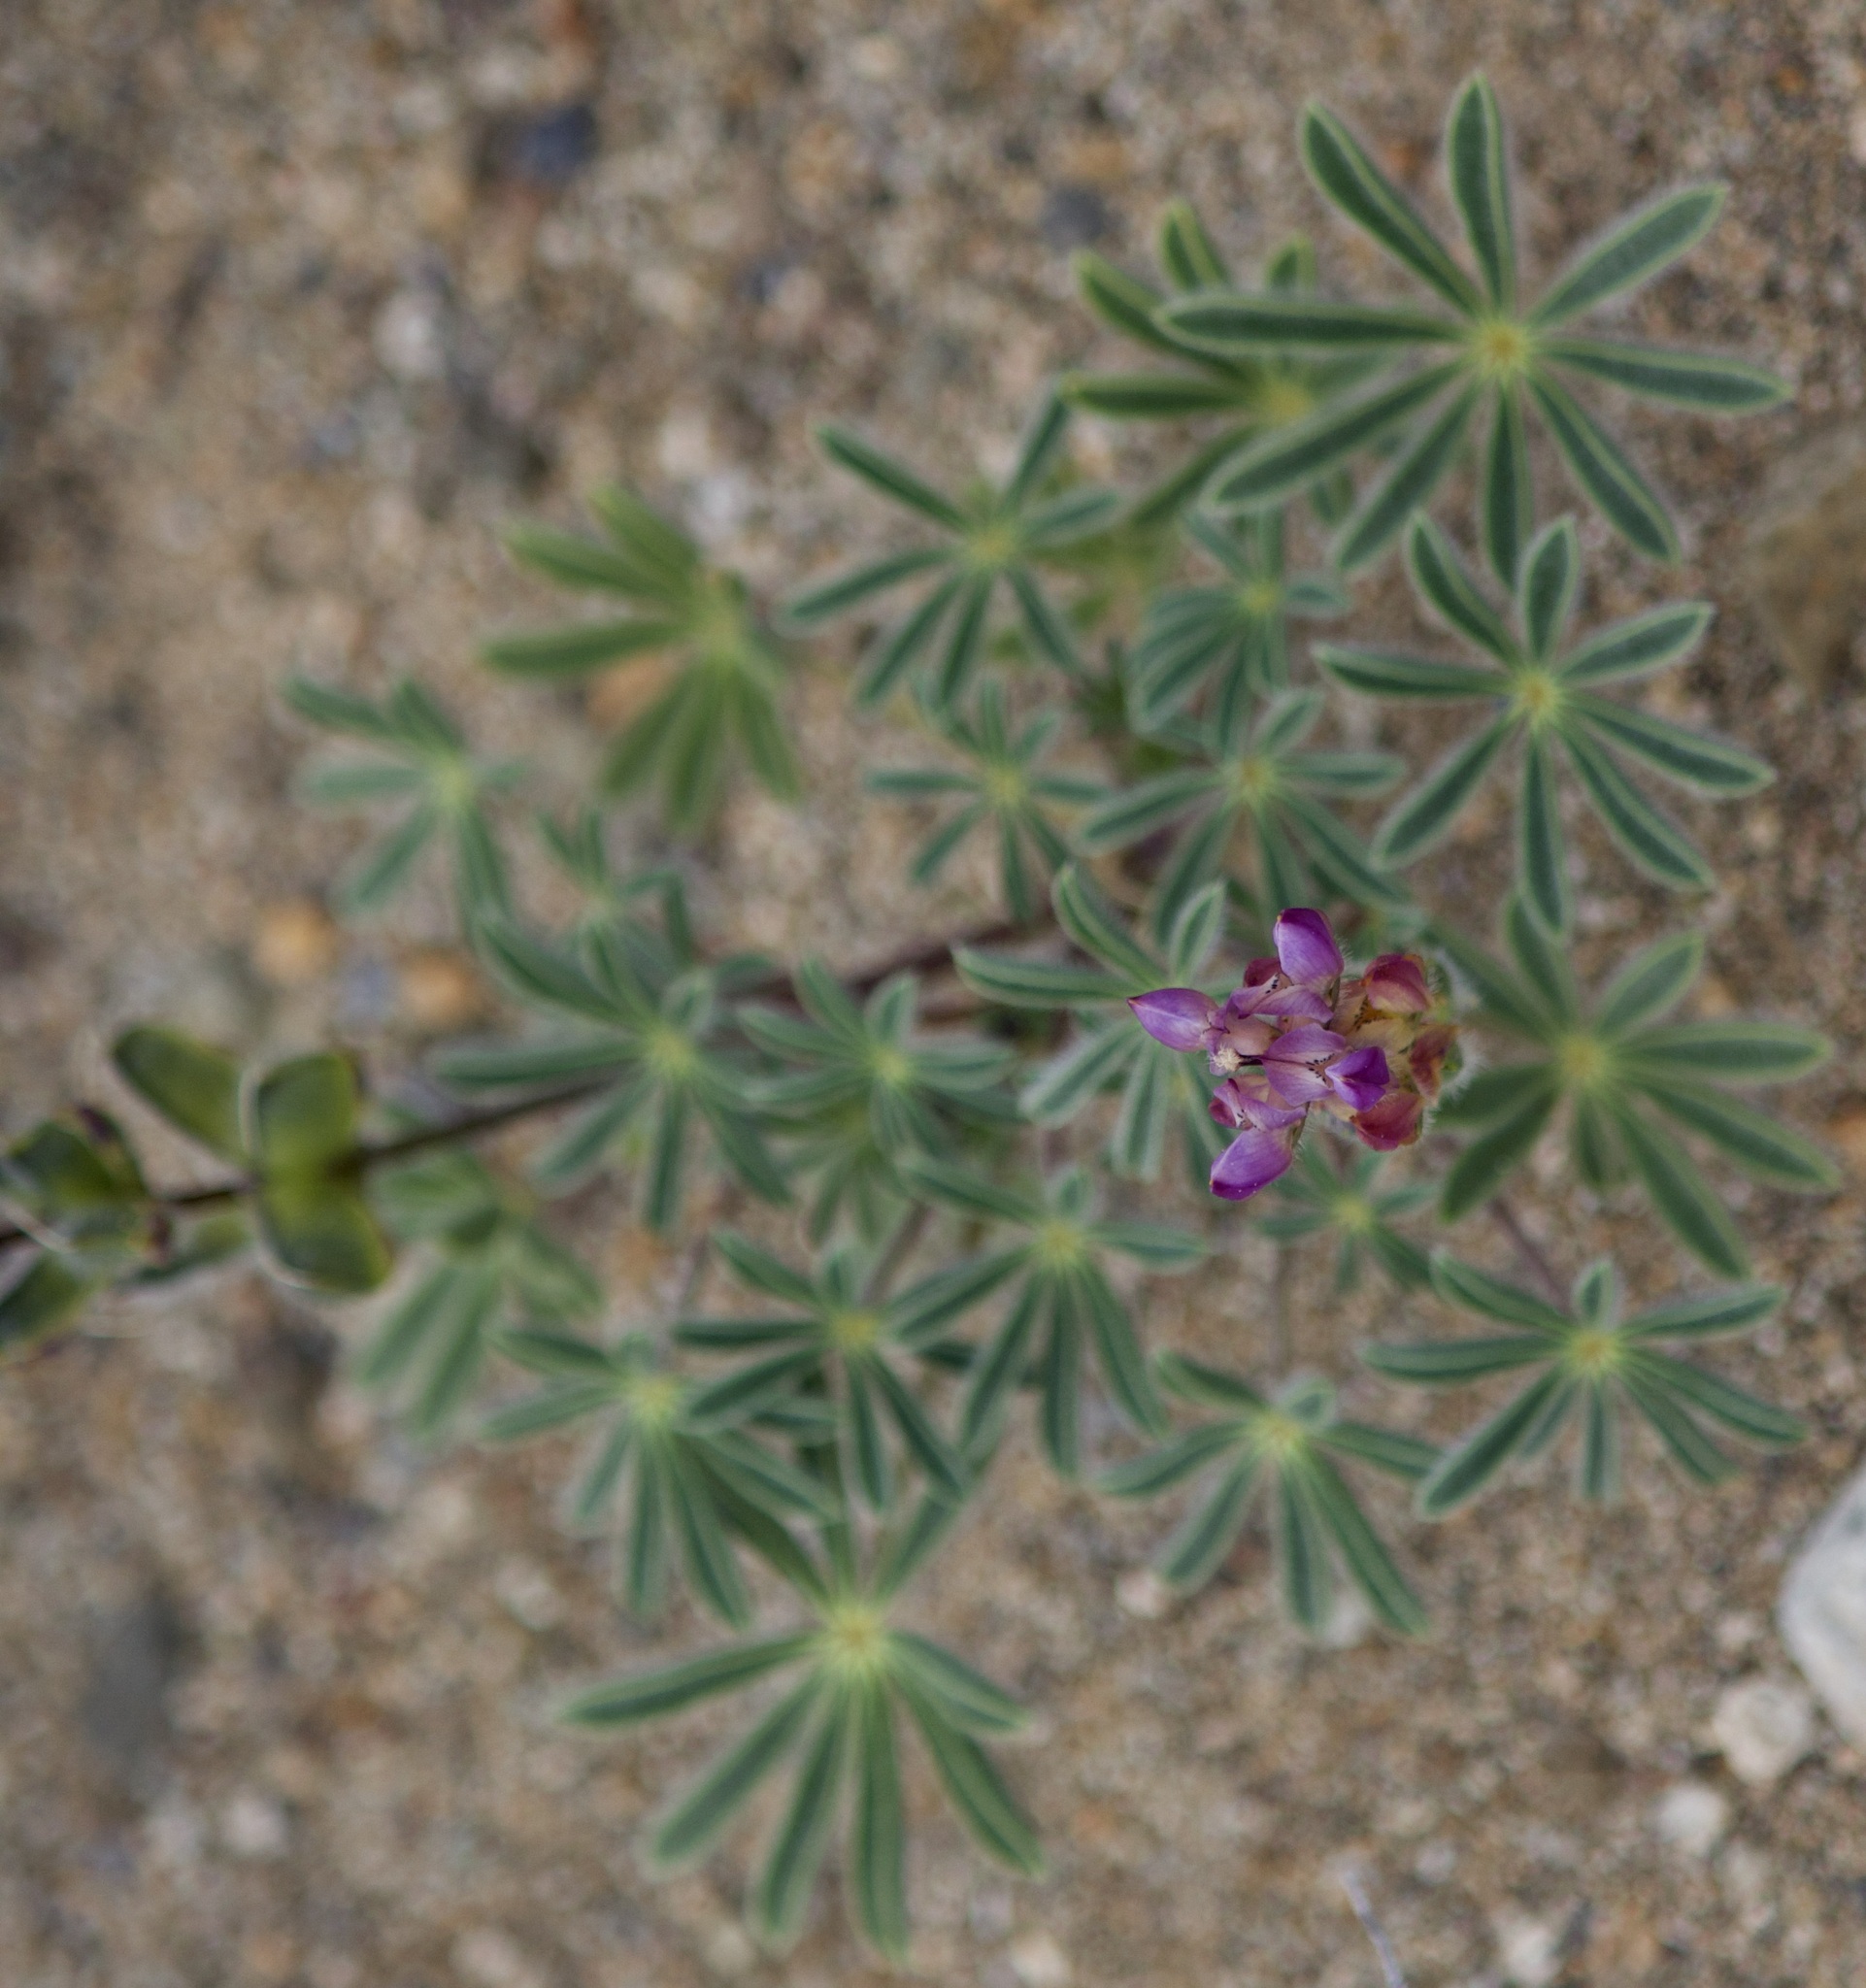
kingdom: Plantae
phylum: Tracheophyta
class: Magnoliopsida
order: Fabales
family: Fabaceae
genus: Lupinus
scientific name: Lupinus microcarpus
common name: Chick lupine
